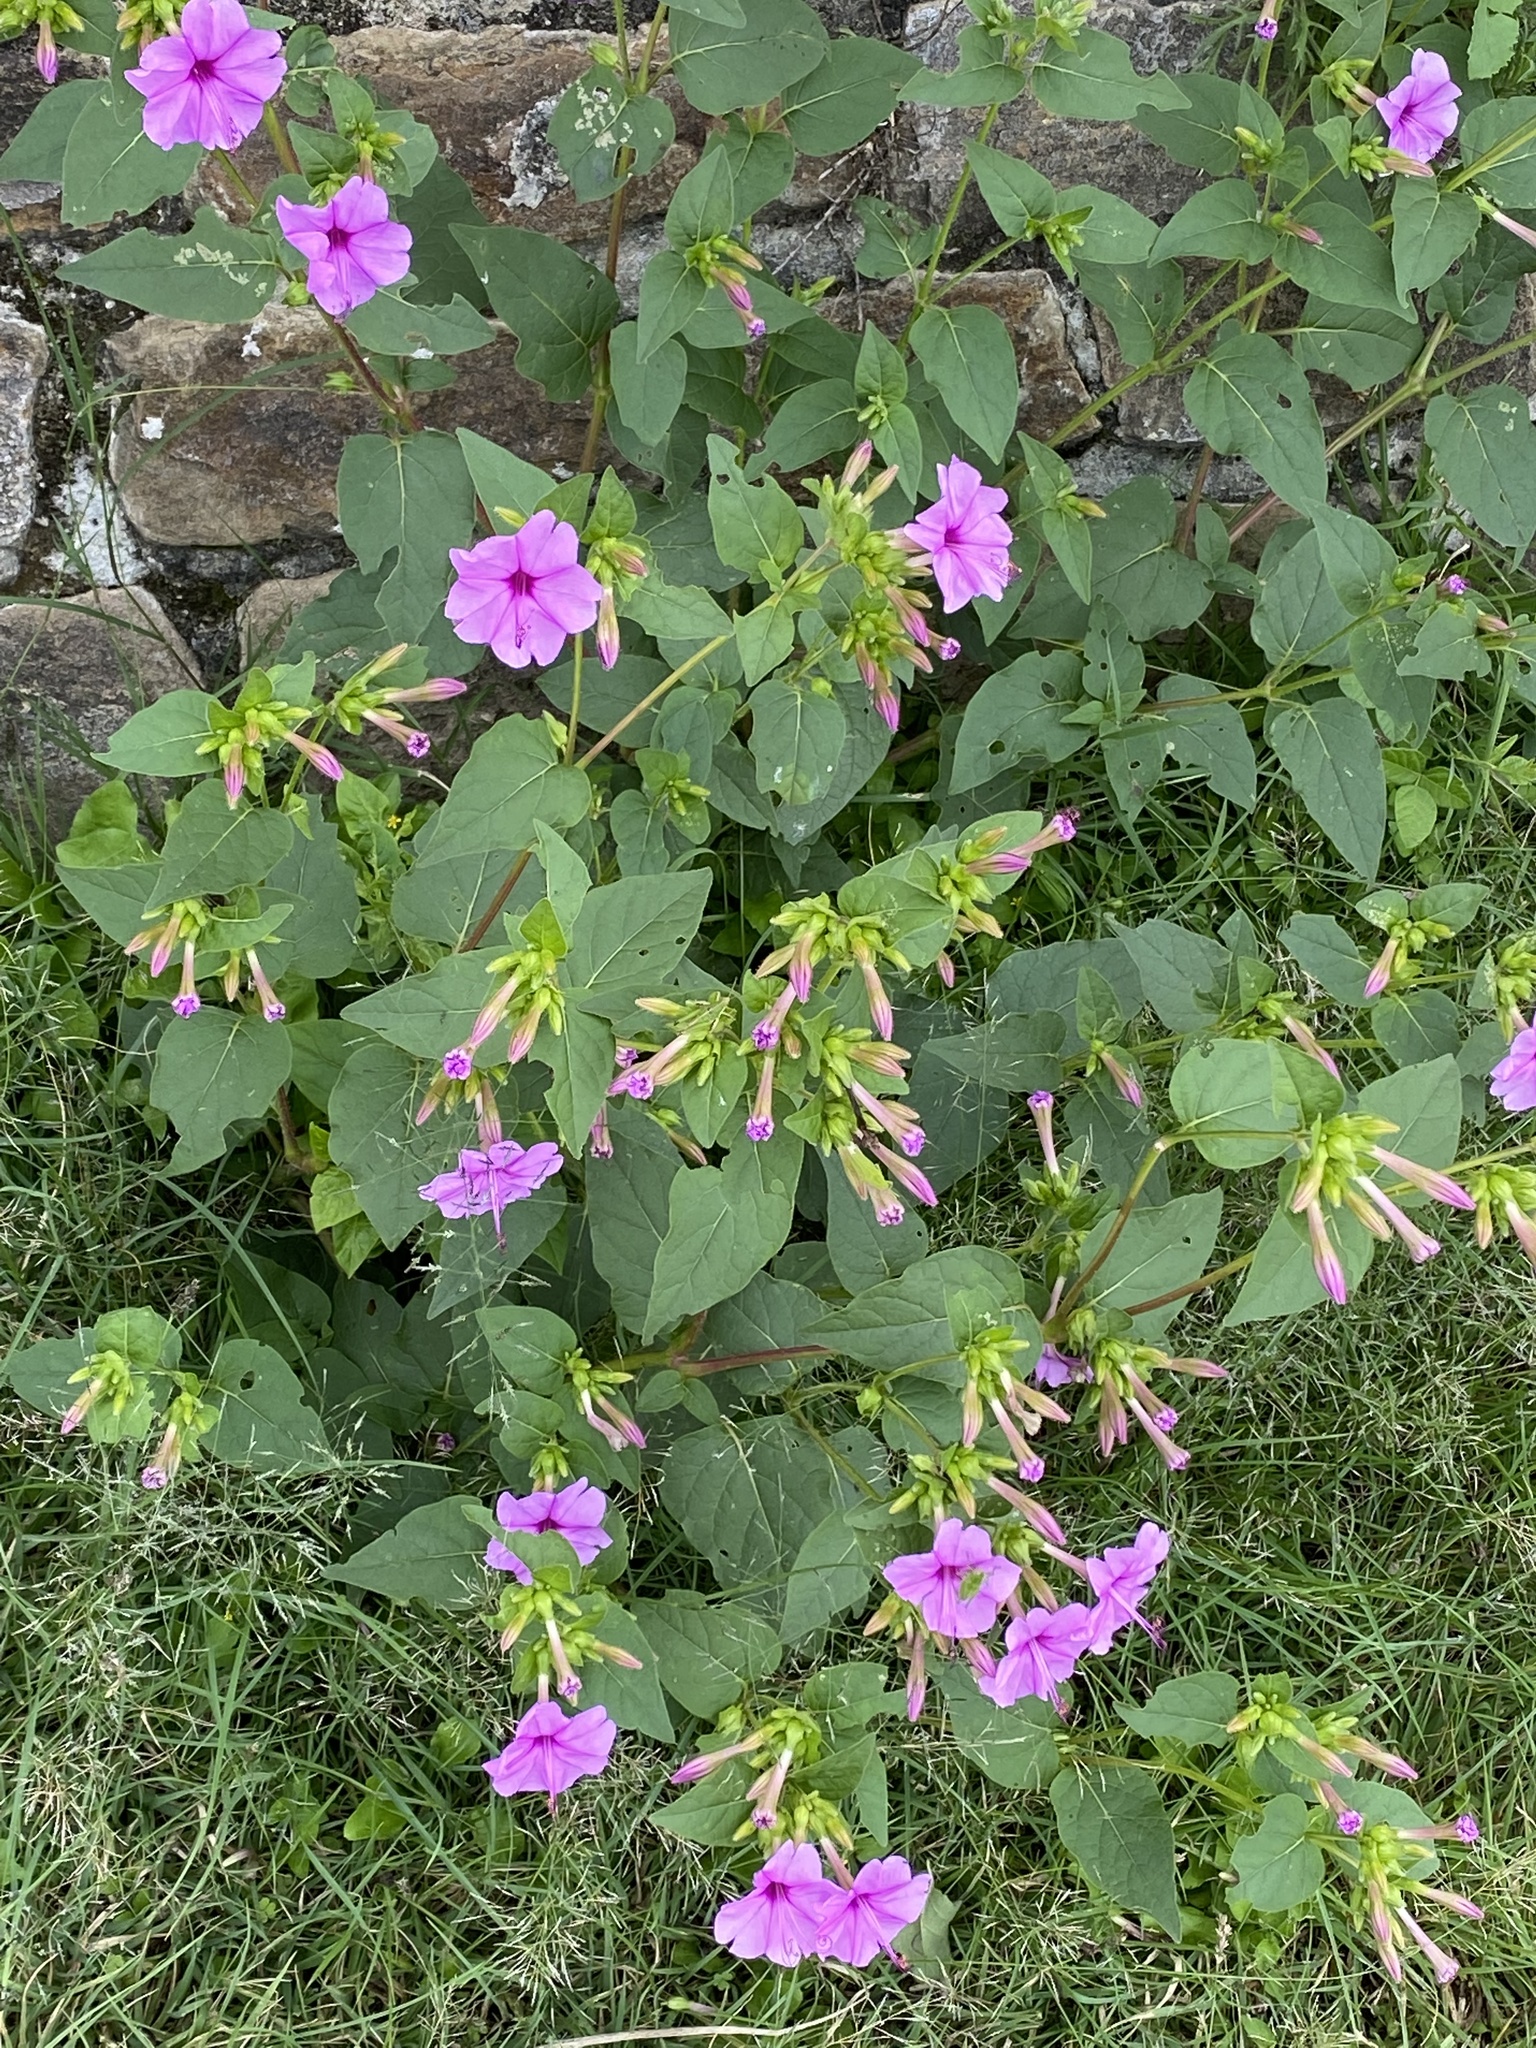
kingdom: Plantae
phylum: Tracheophyta
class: Magnoliopsida
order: Caryophyllales
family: Nyctaginaceae
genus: Mirabilis
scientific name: Mirabilis jalapa
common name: Marvel-of-peru
